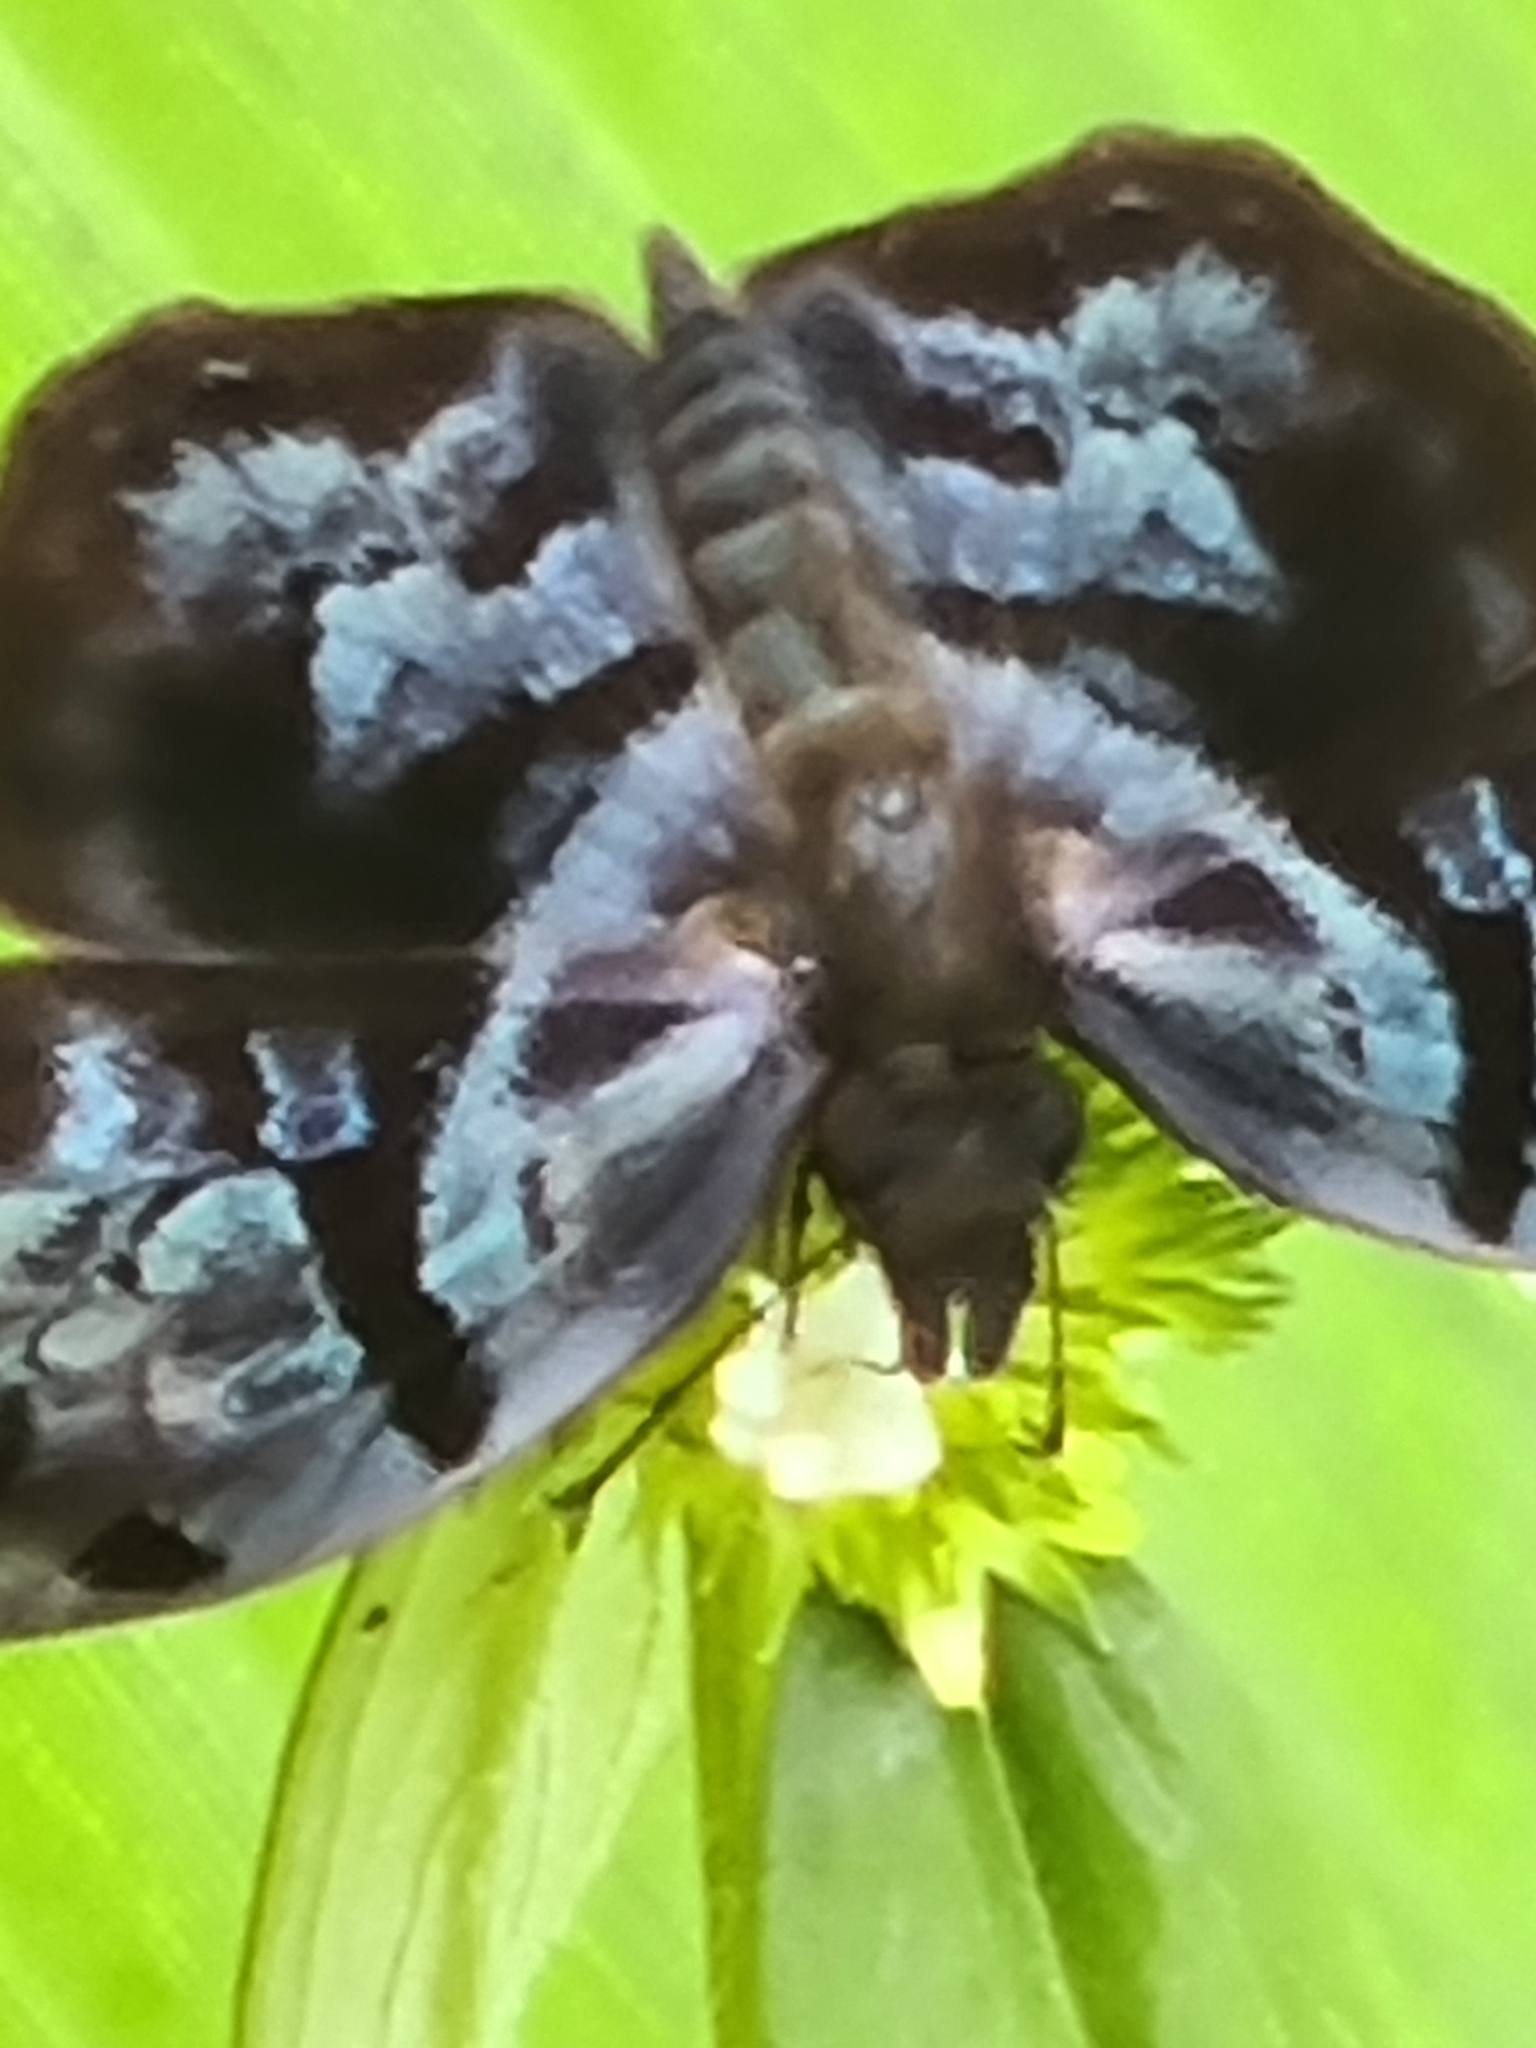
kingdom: Animalia
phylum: Arthropoda
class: Insecta
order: Lepidoptera
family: Hesperiidae
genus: Helias
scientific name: Helias phalaenoides
